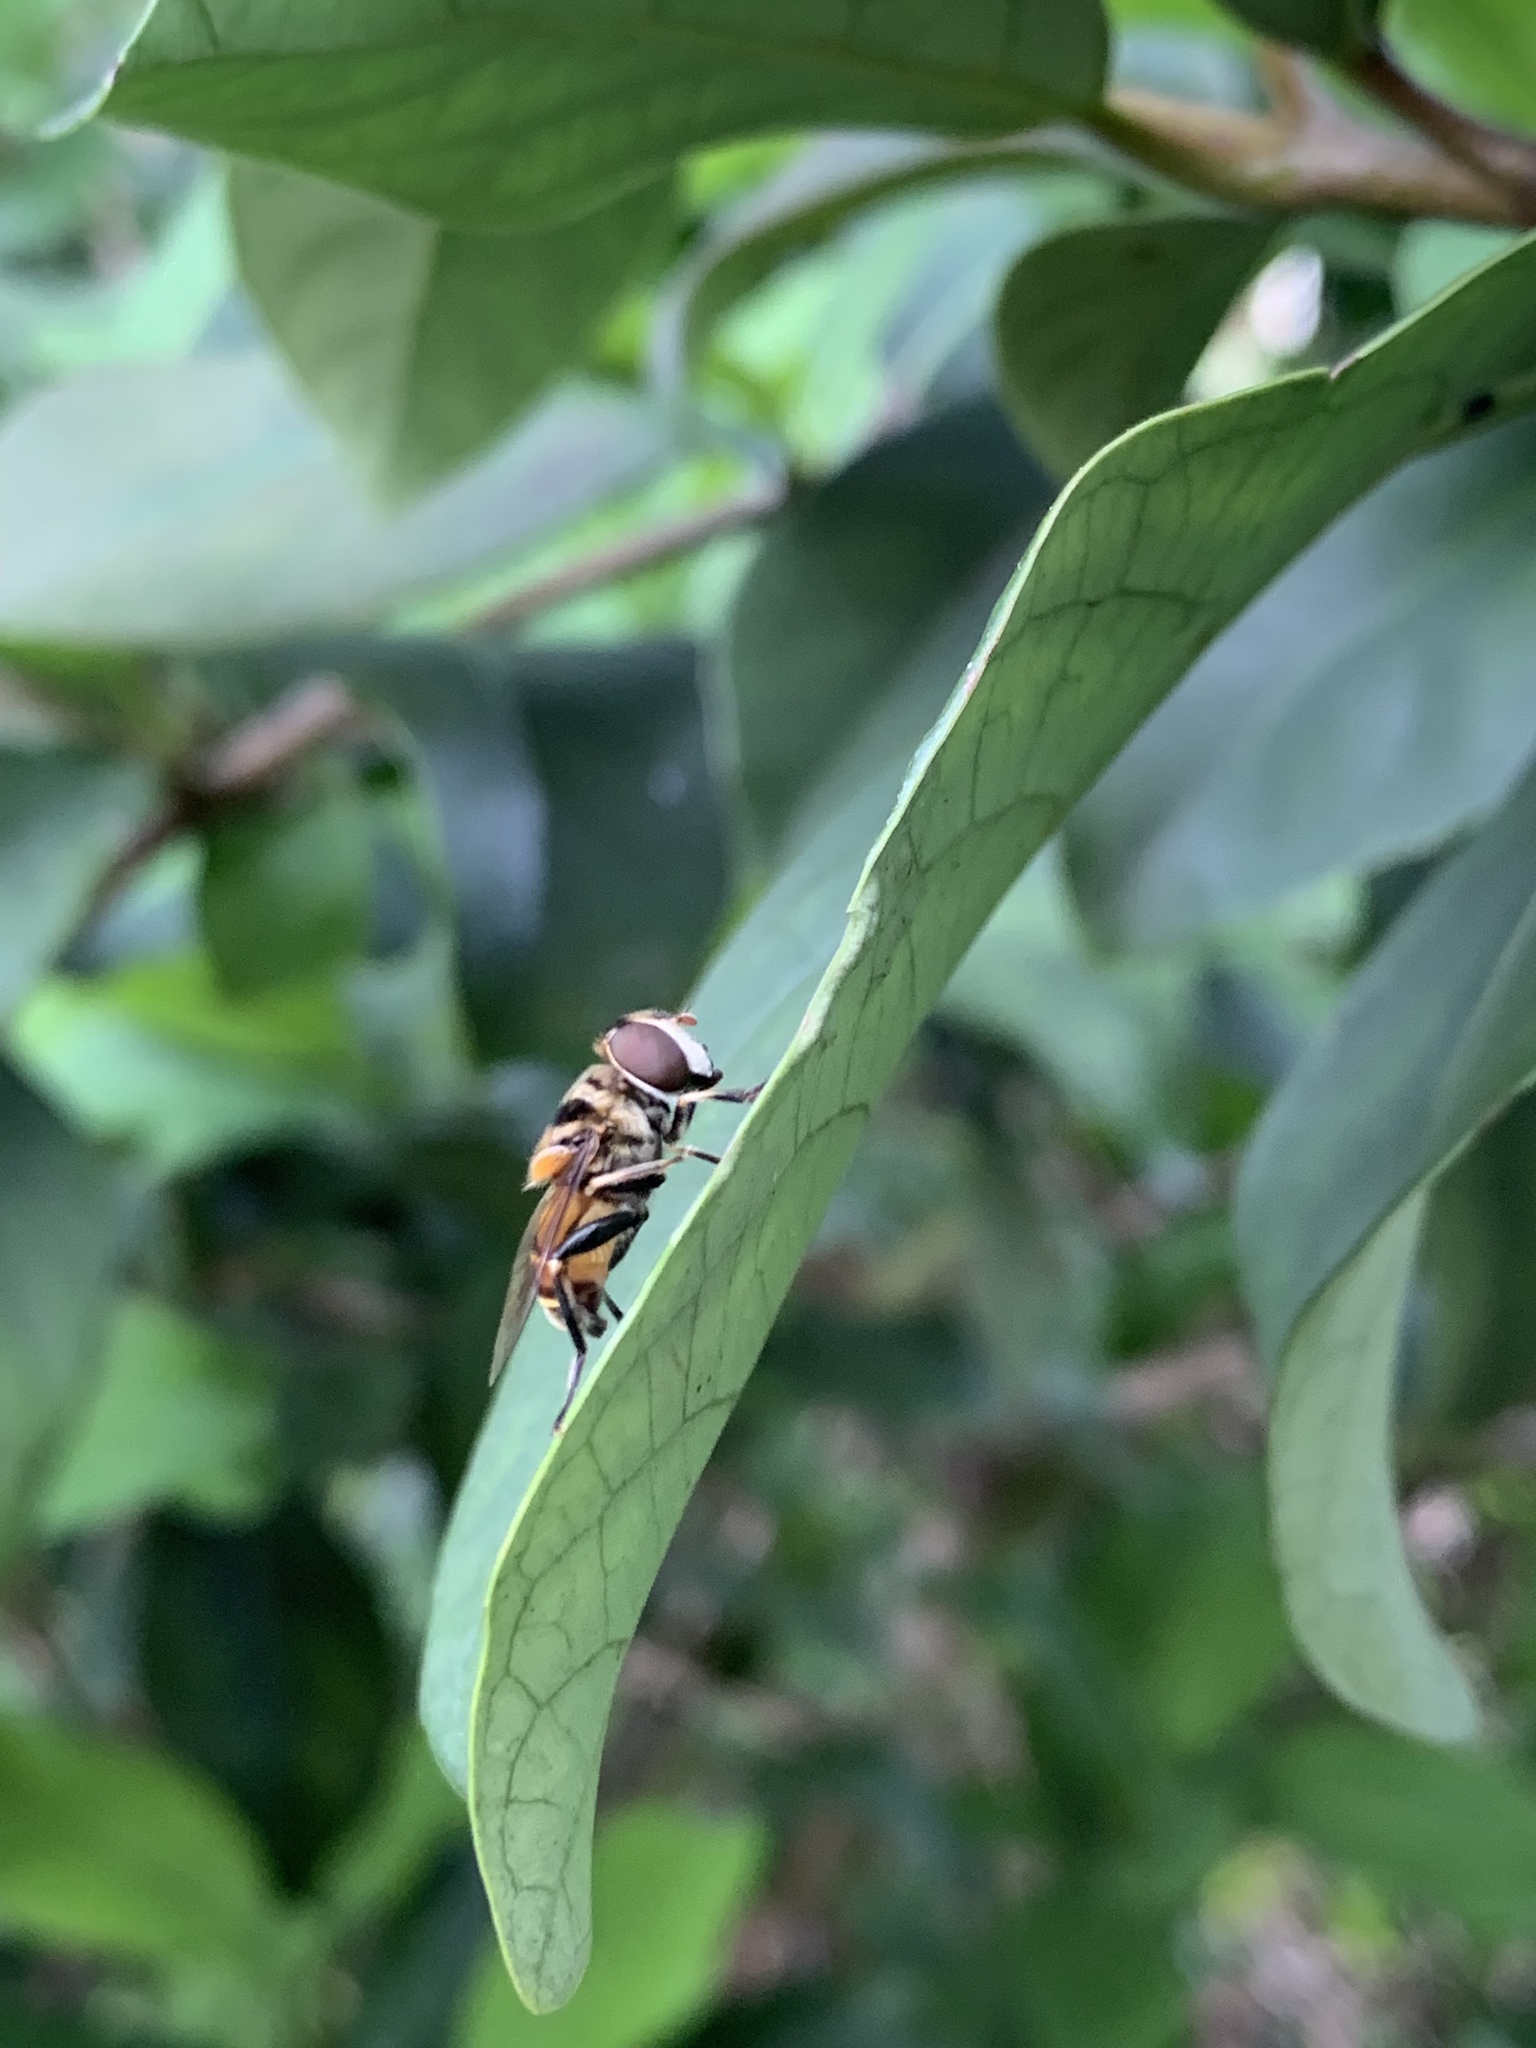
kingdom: Animalia
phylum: Arthropoda
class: Insecta
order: Diptera
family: Syrphidae
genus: Palpada
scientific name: Palpada agrorum
